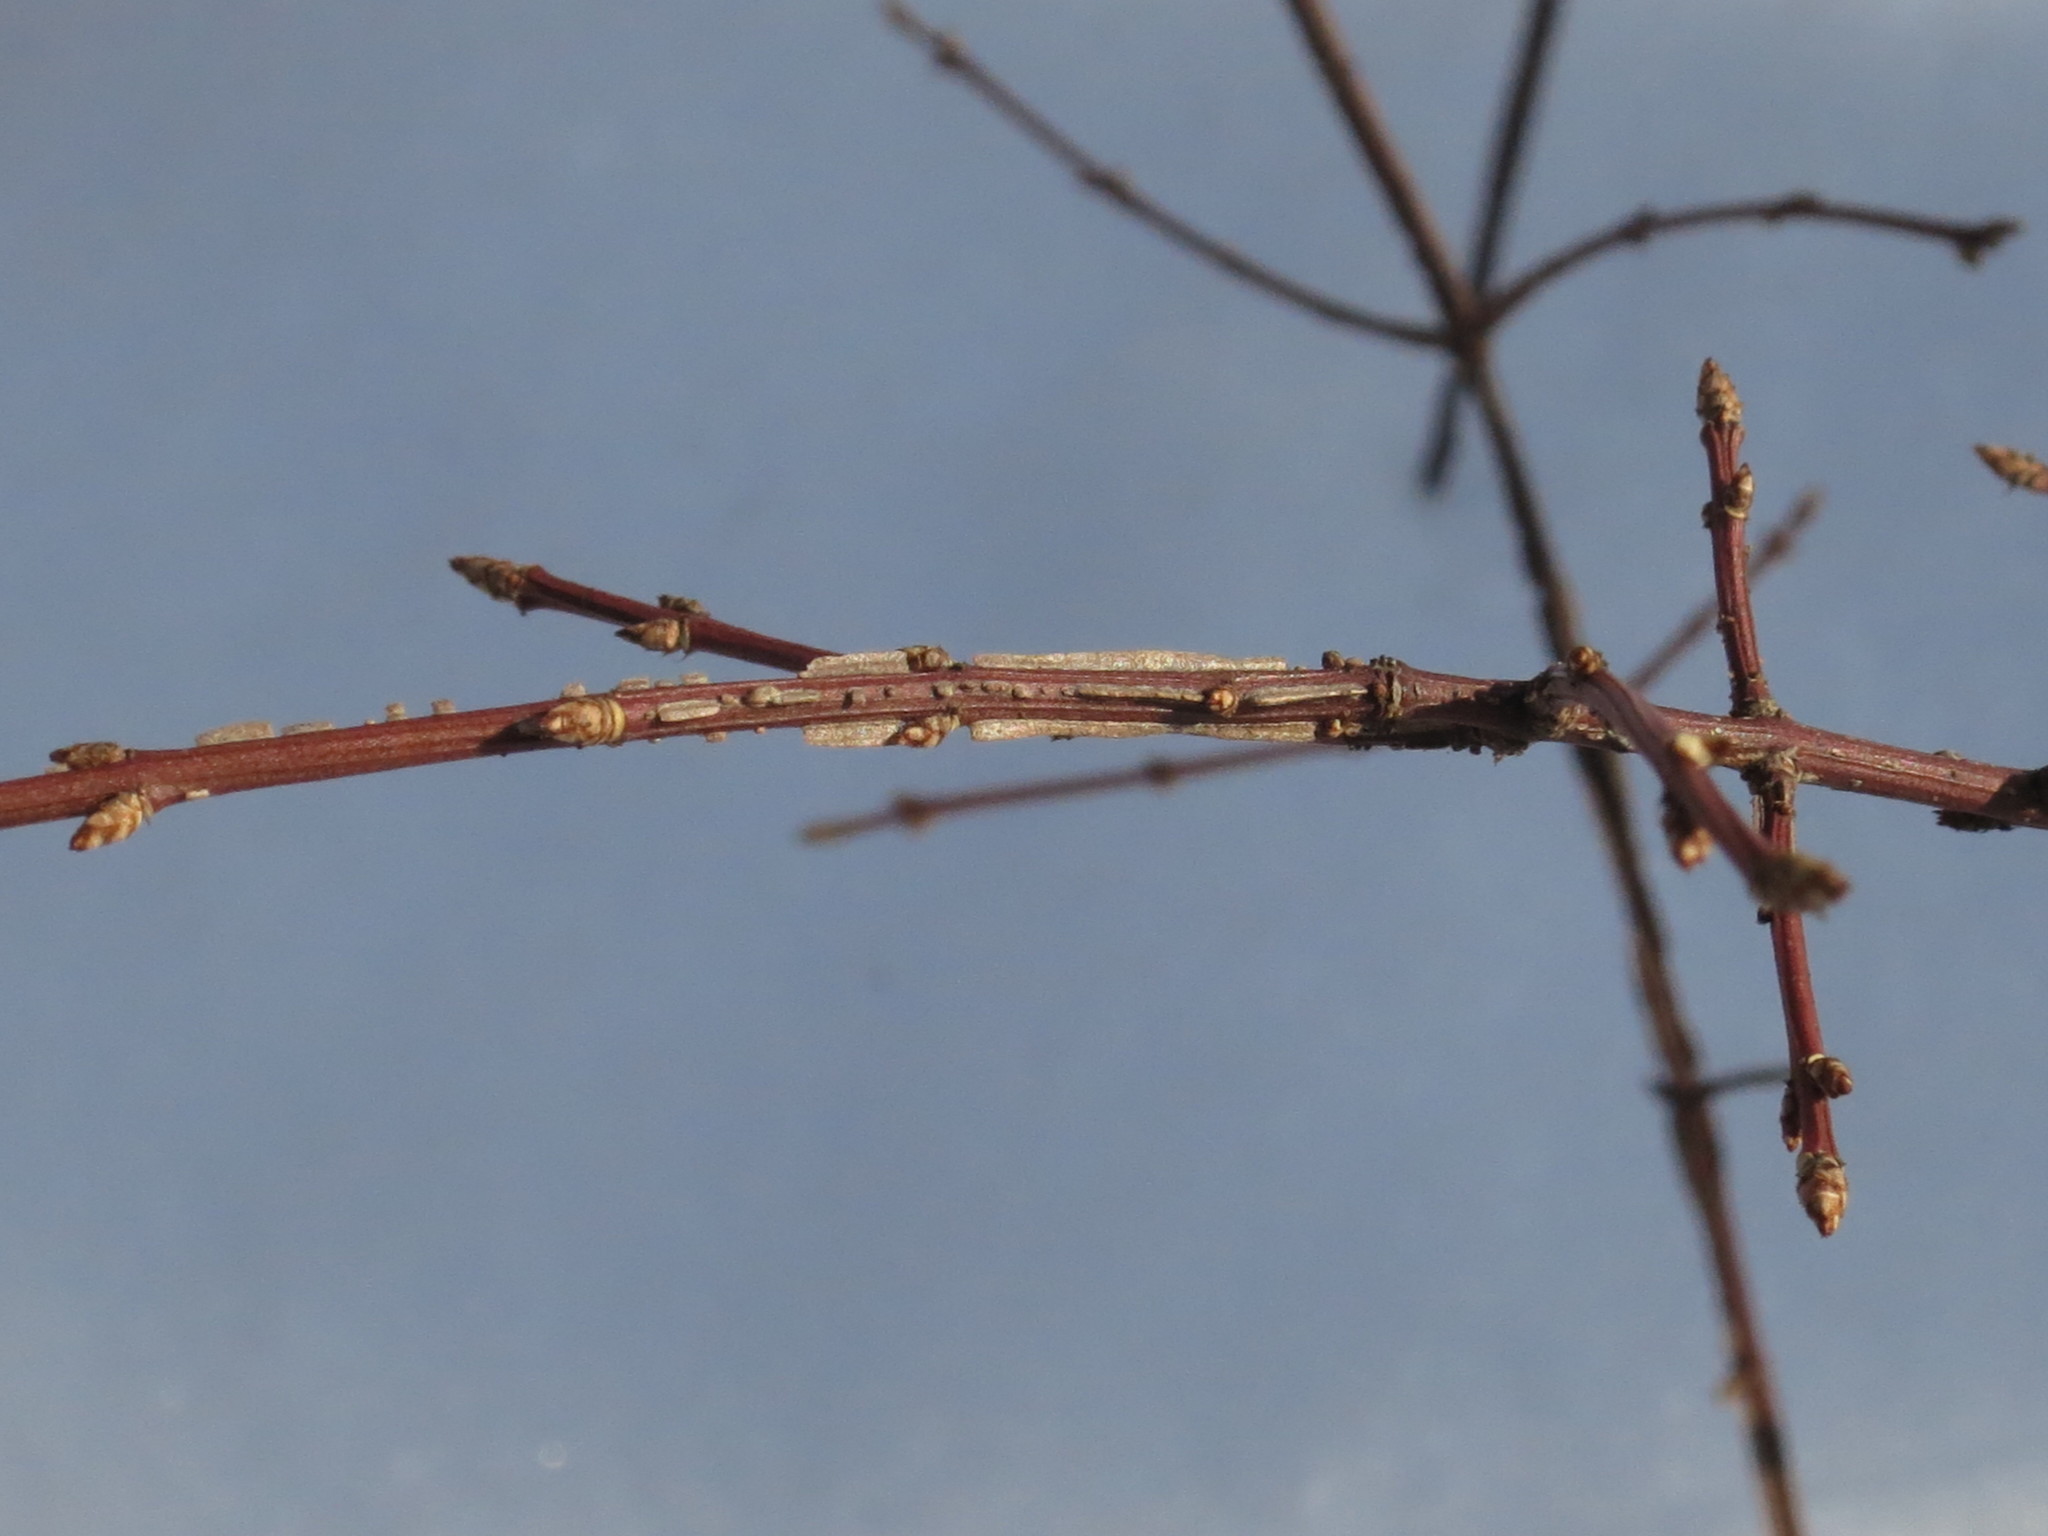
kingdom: Plantae
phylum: Tracheophyta
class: Magnoliopsida
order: Celastrales
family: Celastraceae
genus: Euonymus
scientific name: Euonymus alatus
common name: Winged euonymus
